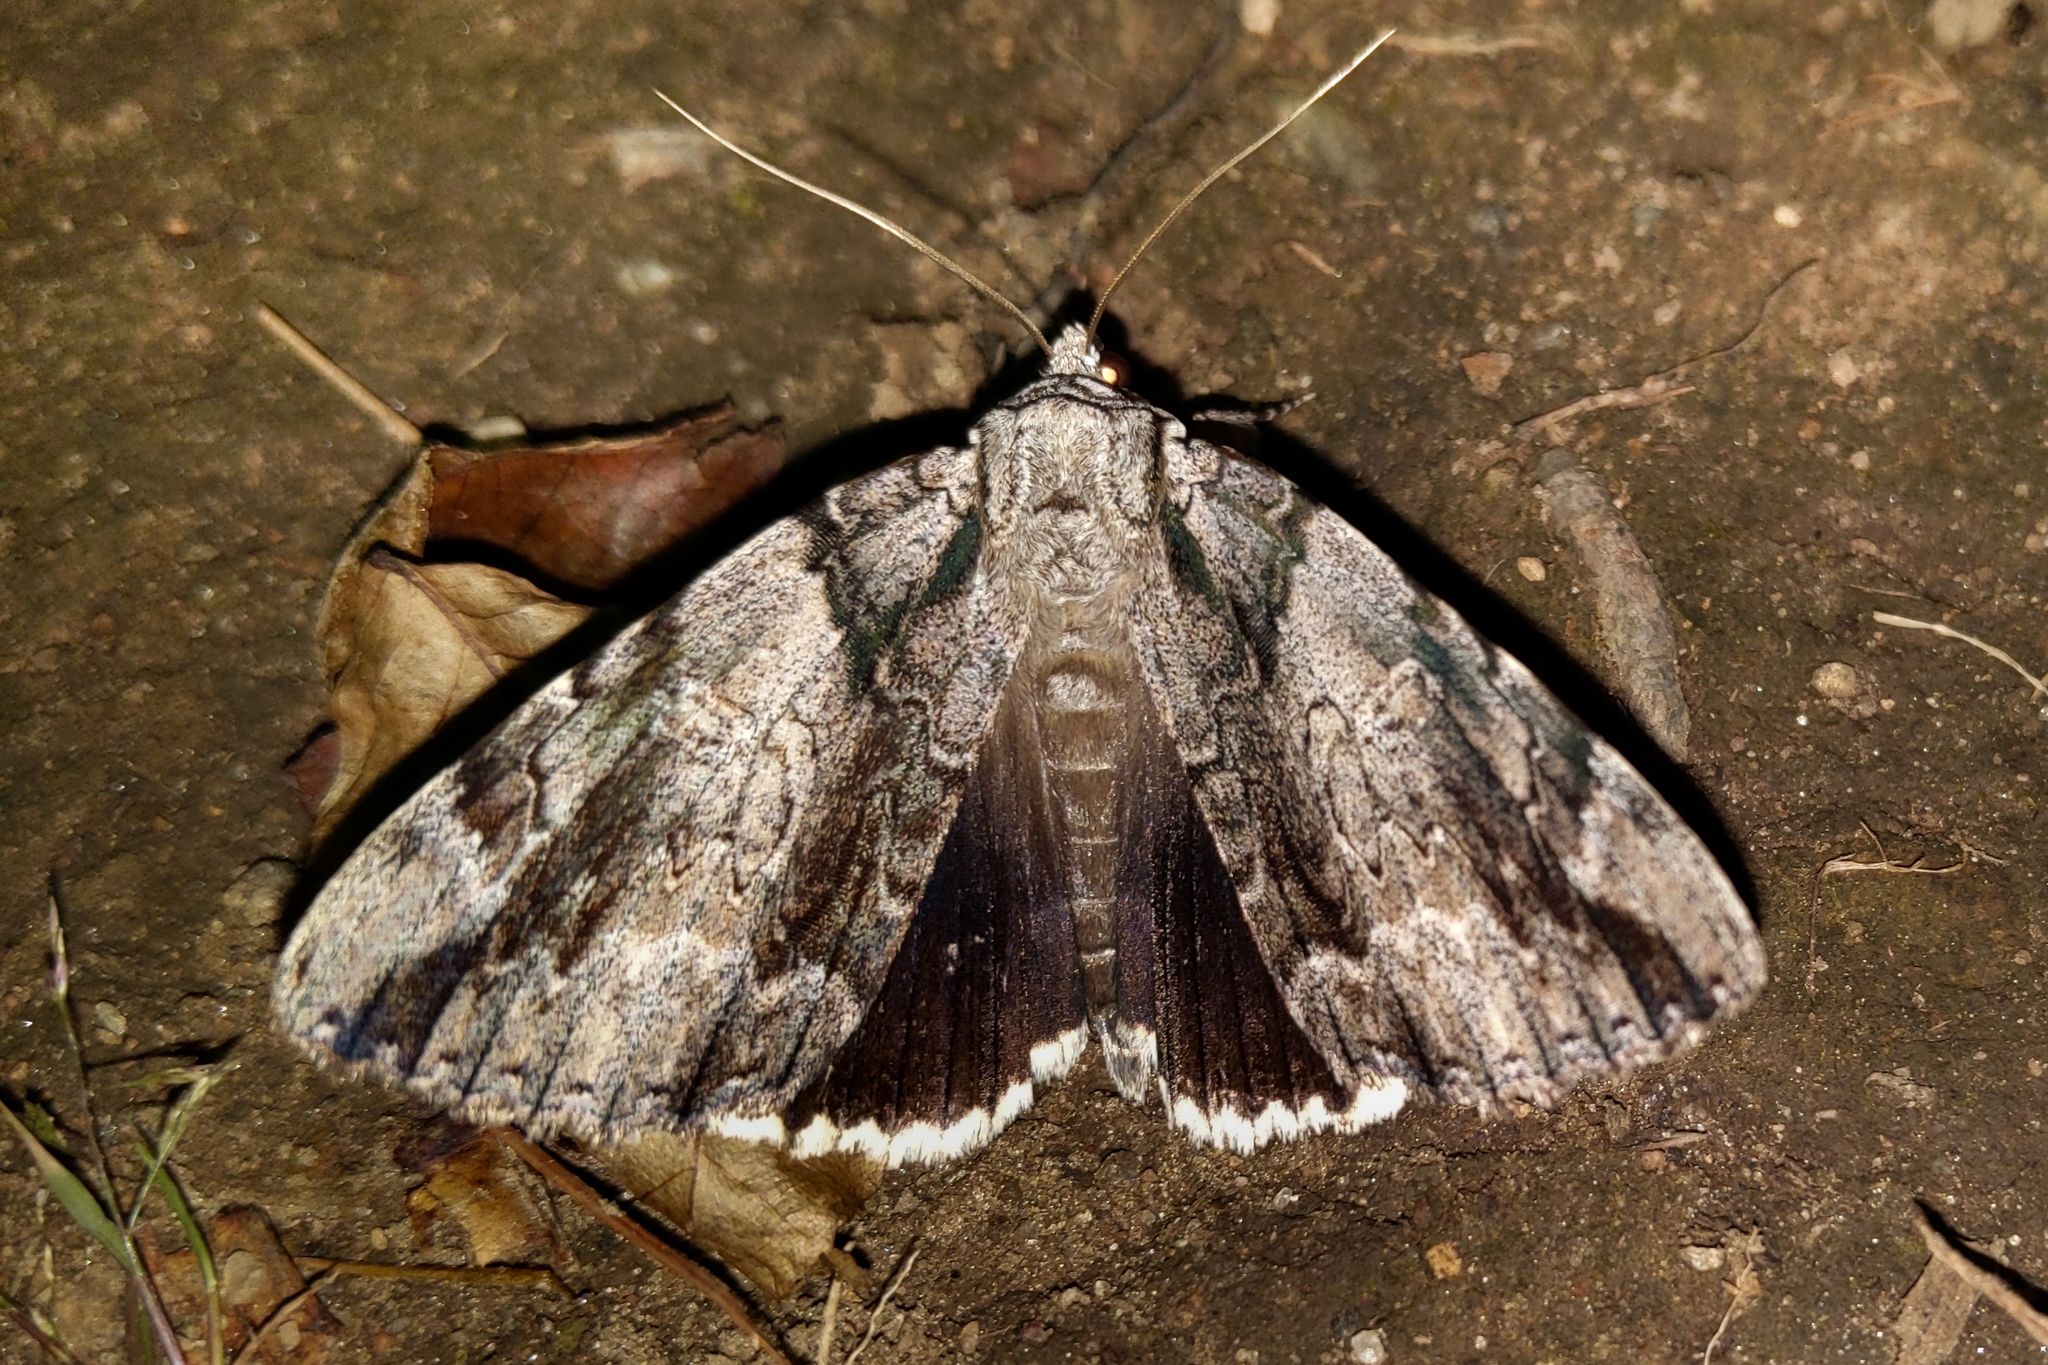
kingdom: Animalia
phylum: Arthropoda
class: Insecta
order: Lepidoptera
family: Erebidae
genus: Catocala
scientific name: Catocala vidua
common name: The widow
